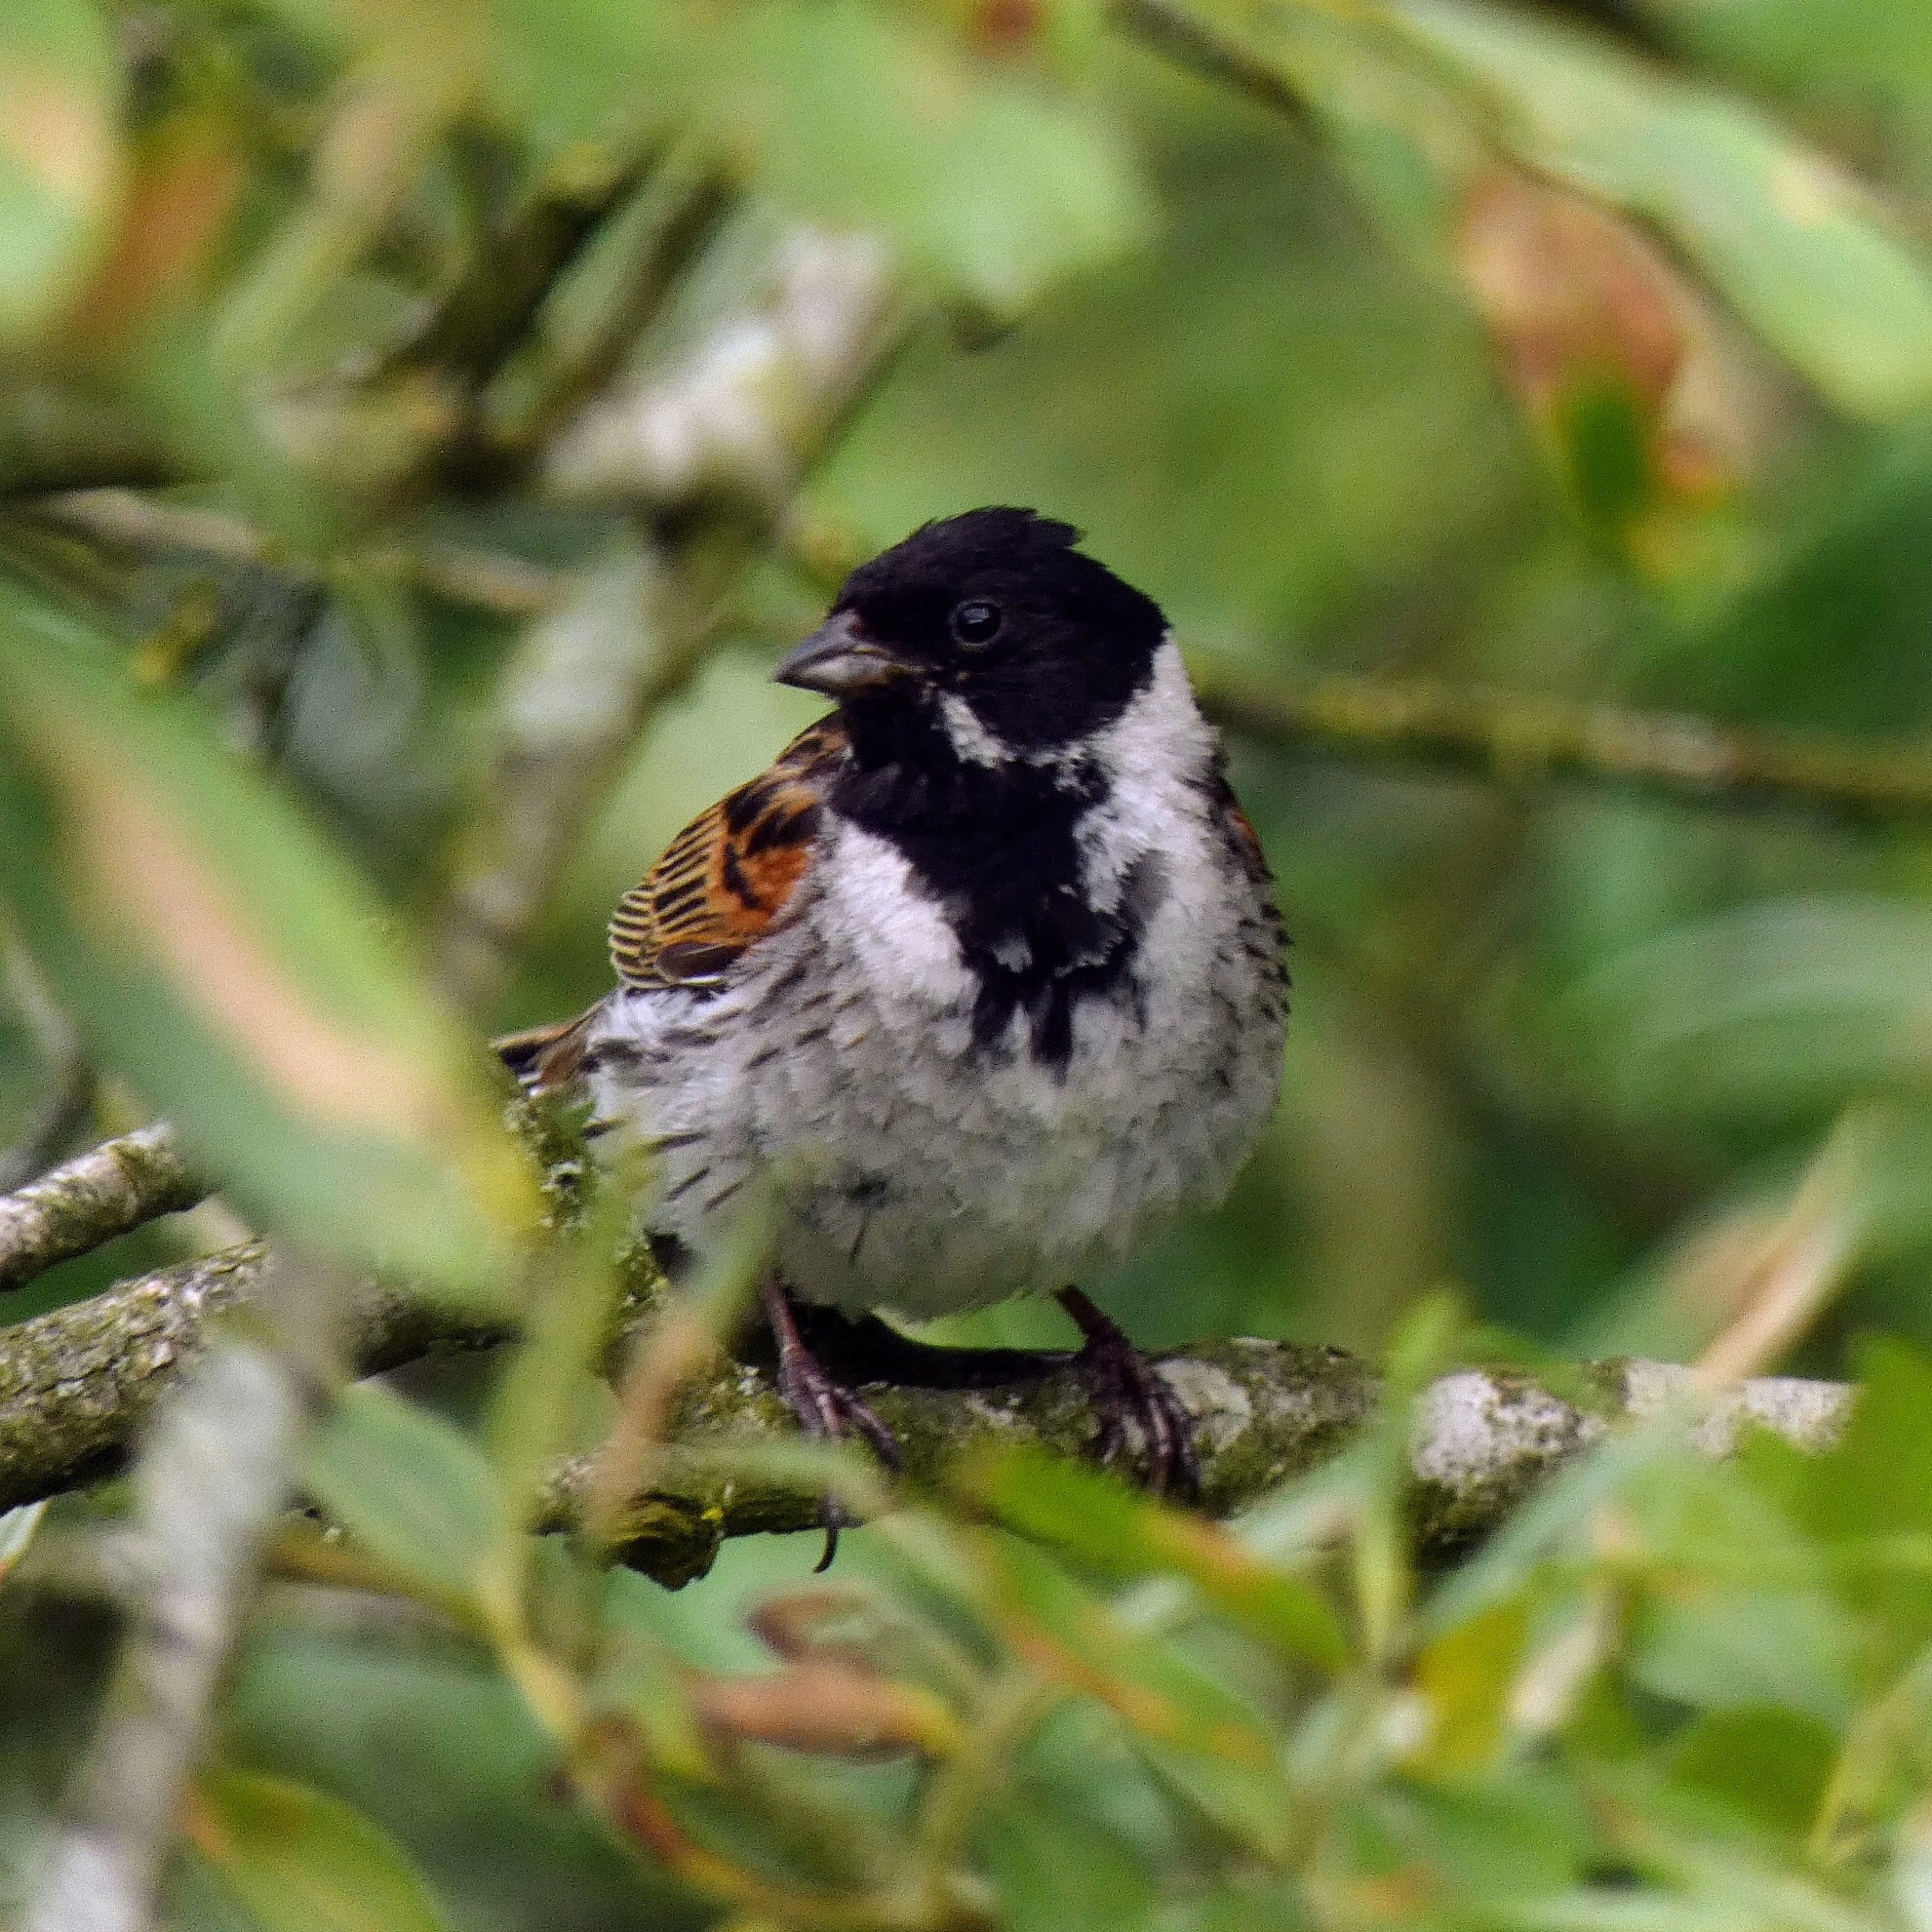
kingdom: Animalia
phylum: Chordata
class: Aves
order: Passeriformes
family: Emberizidae
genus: Emberiza
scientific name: Emberiza schoeniclus
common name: Reed bunting
